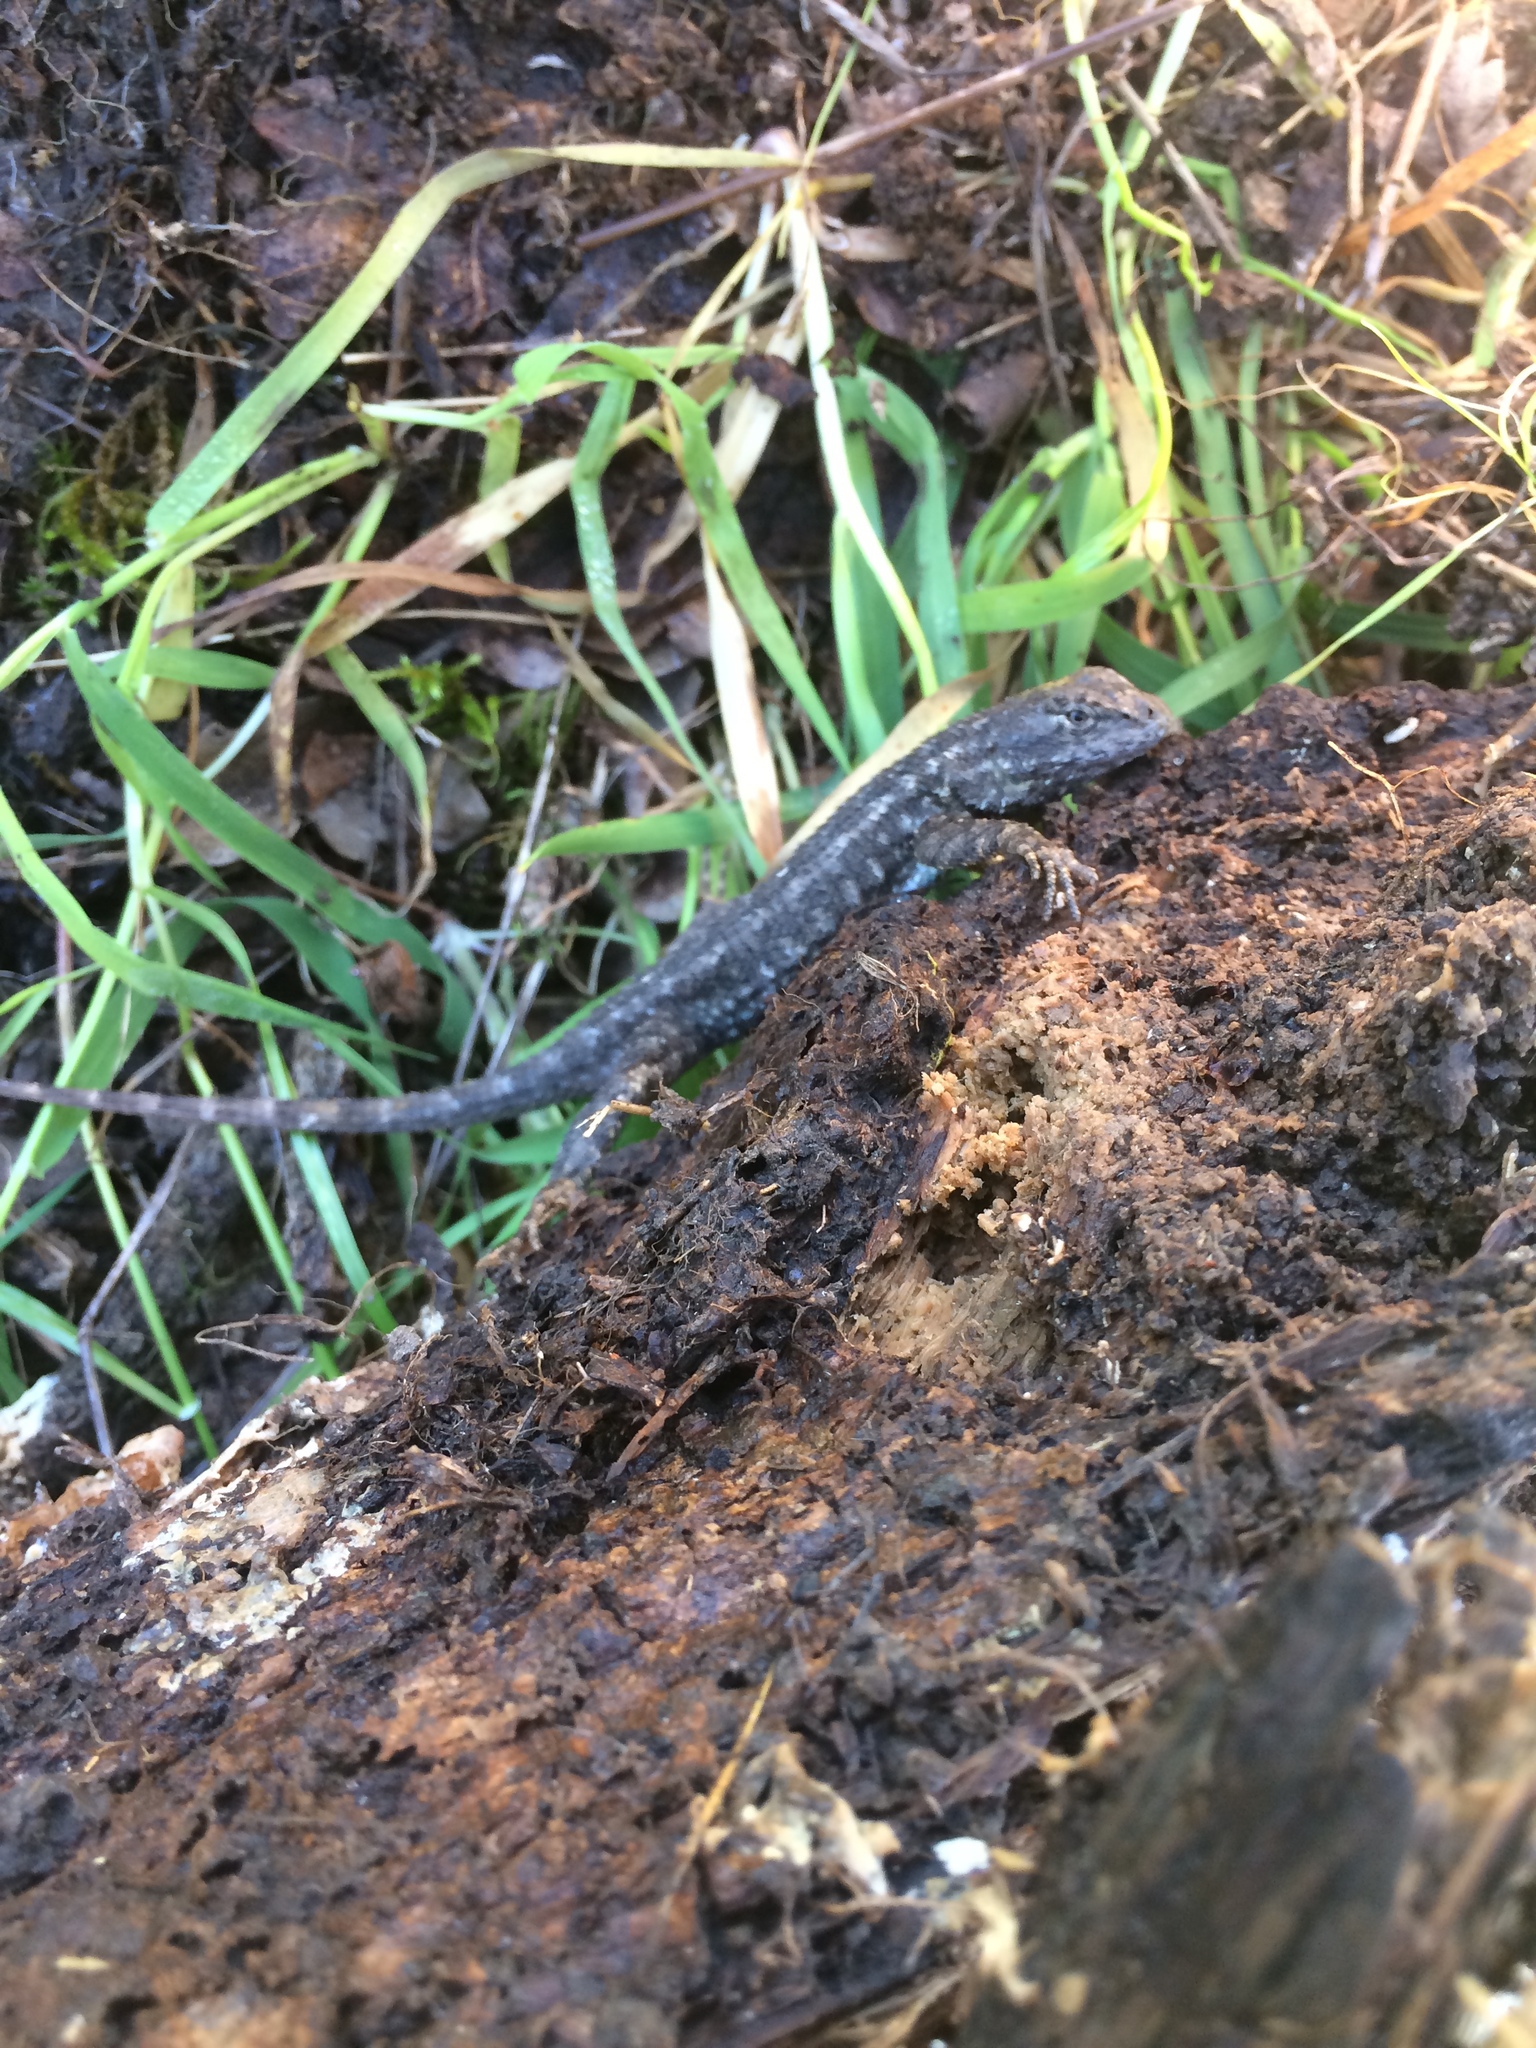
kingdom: Animalia
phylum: Chordata
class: Squamata
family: Phrynosomatidae
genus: Sceloporus
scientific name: Sceloporus occidentalis
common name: Western fence lizard
